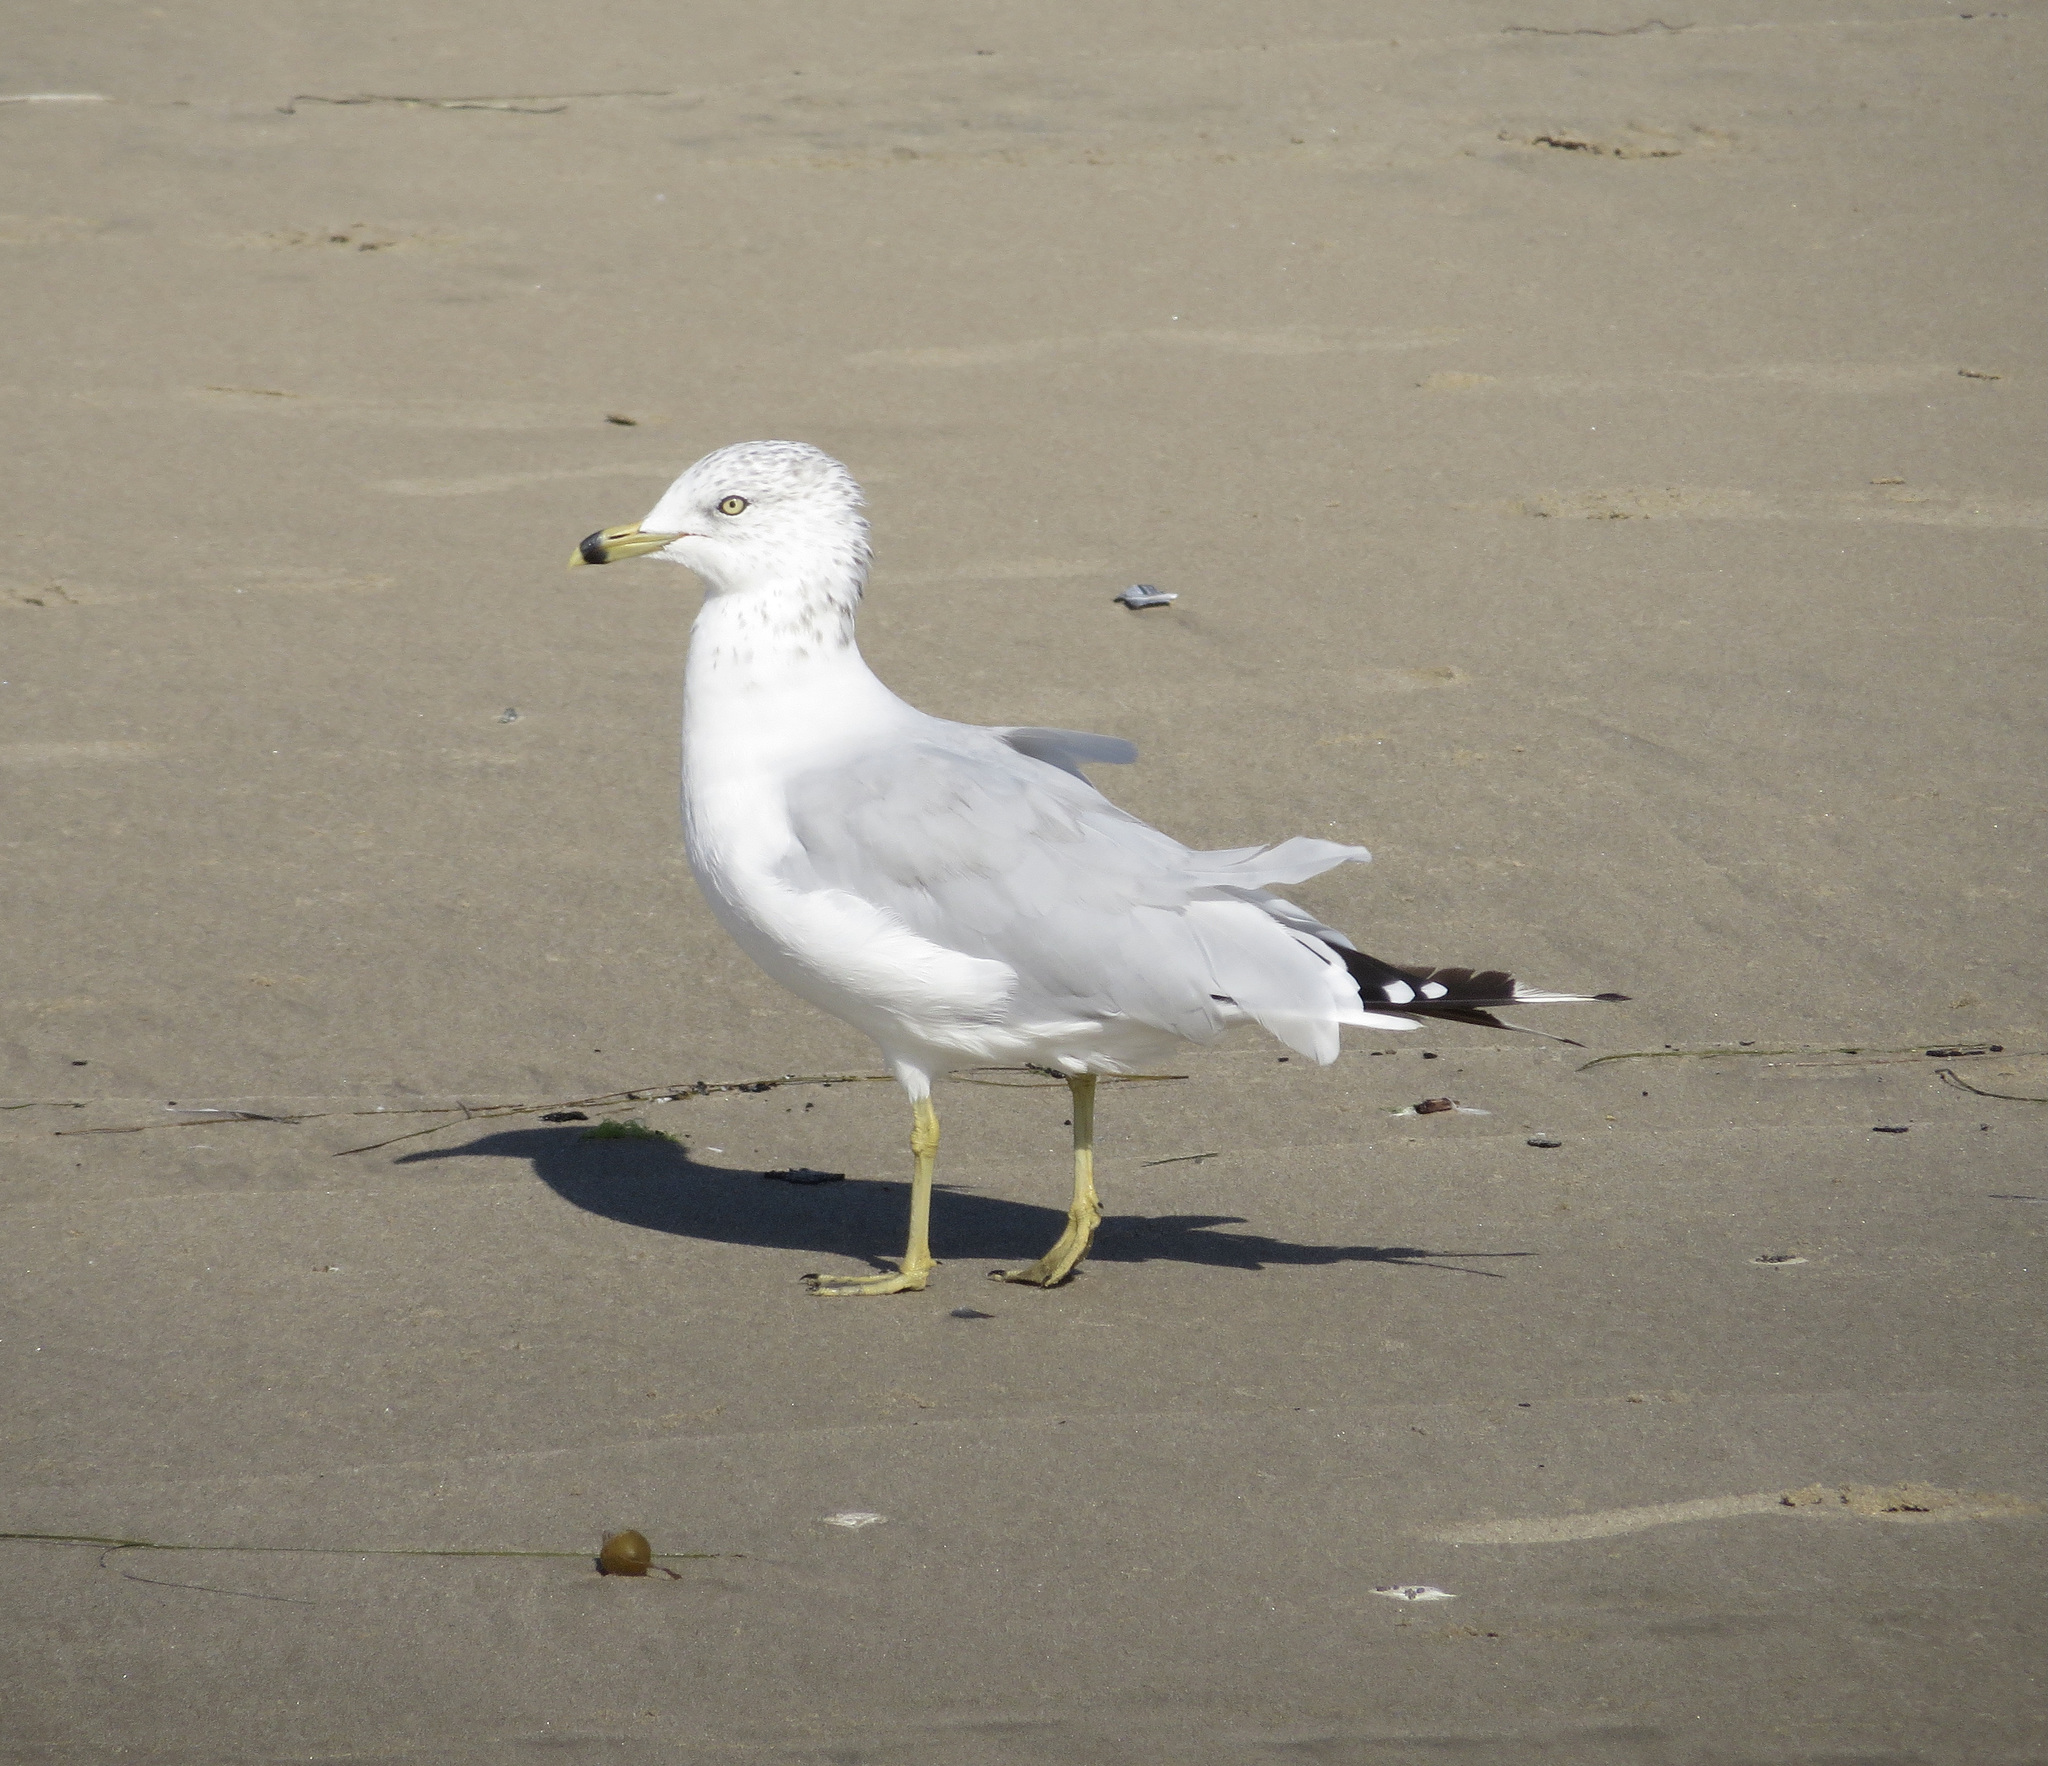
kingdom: Animalia
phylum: Chordata
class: Aves
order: Charadriiformes
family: Laridae
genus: Larus
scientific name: Larus delawarensis
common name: Ring-billed gull
